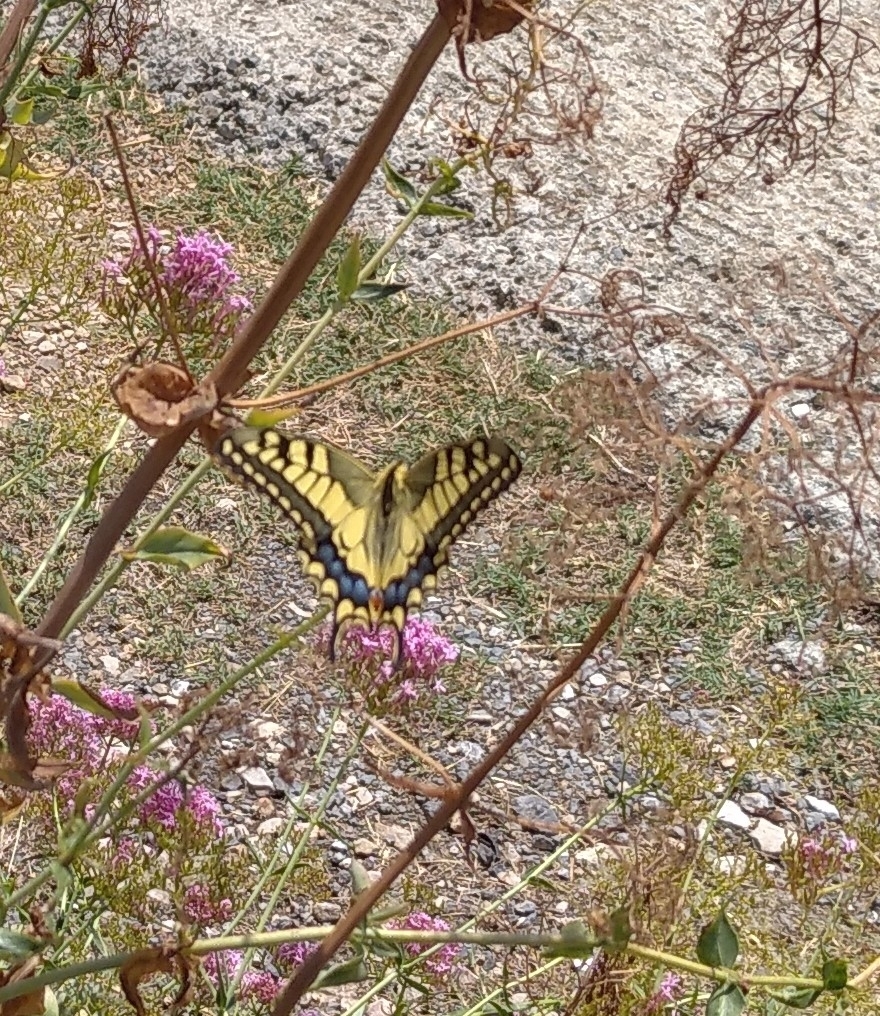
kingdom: Animalia
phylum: Arthropoda
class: Insecta
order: Lepidoptera
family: Papilionidae
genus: Papilio
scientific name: Papilio machaon
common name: Swallowtail
